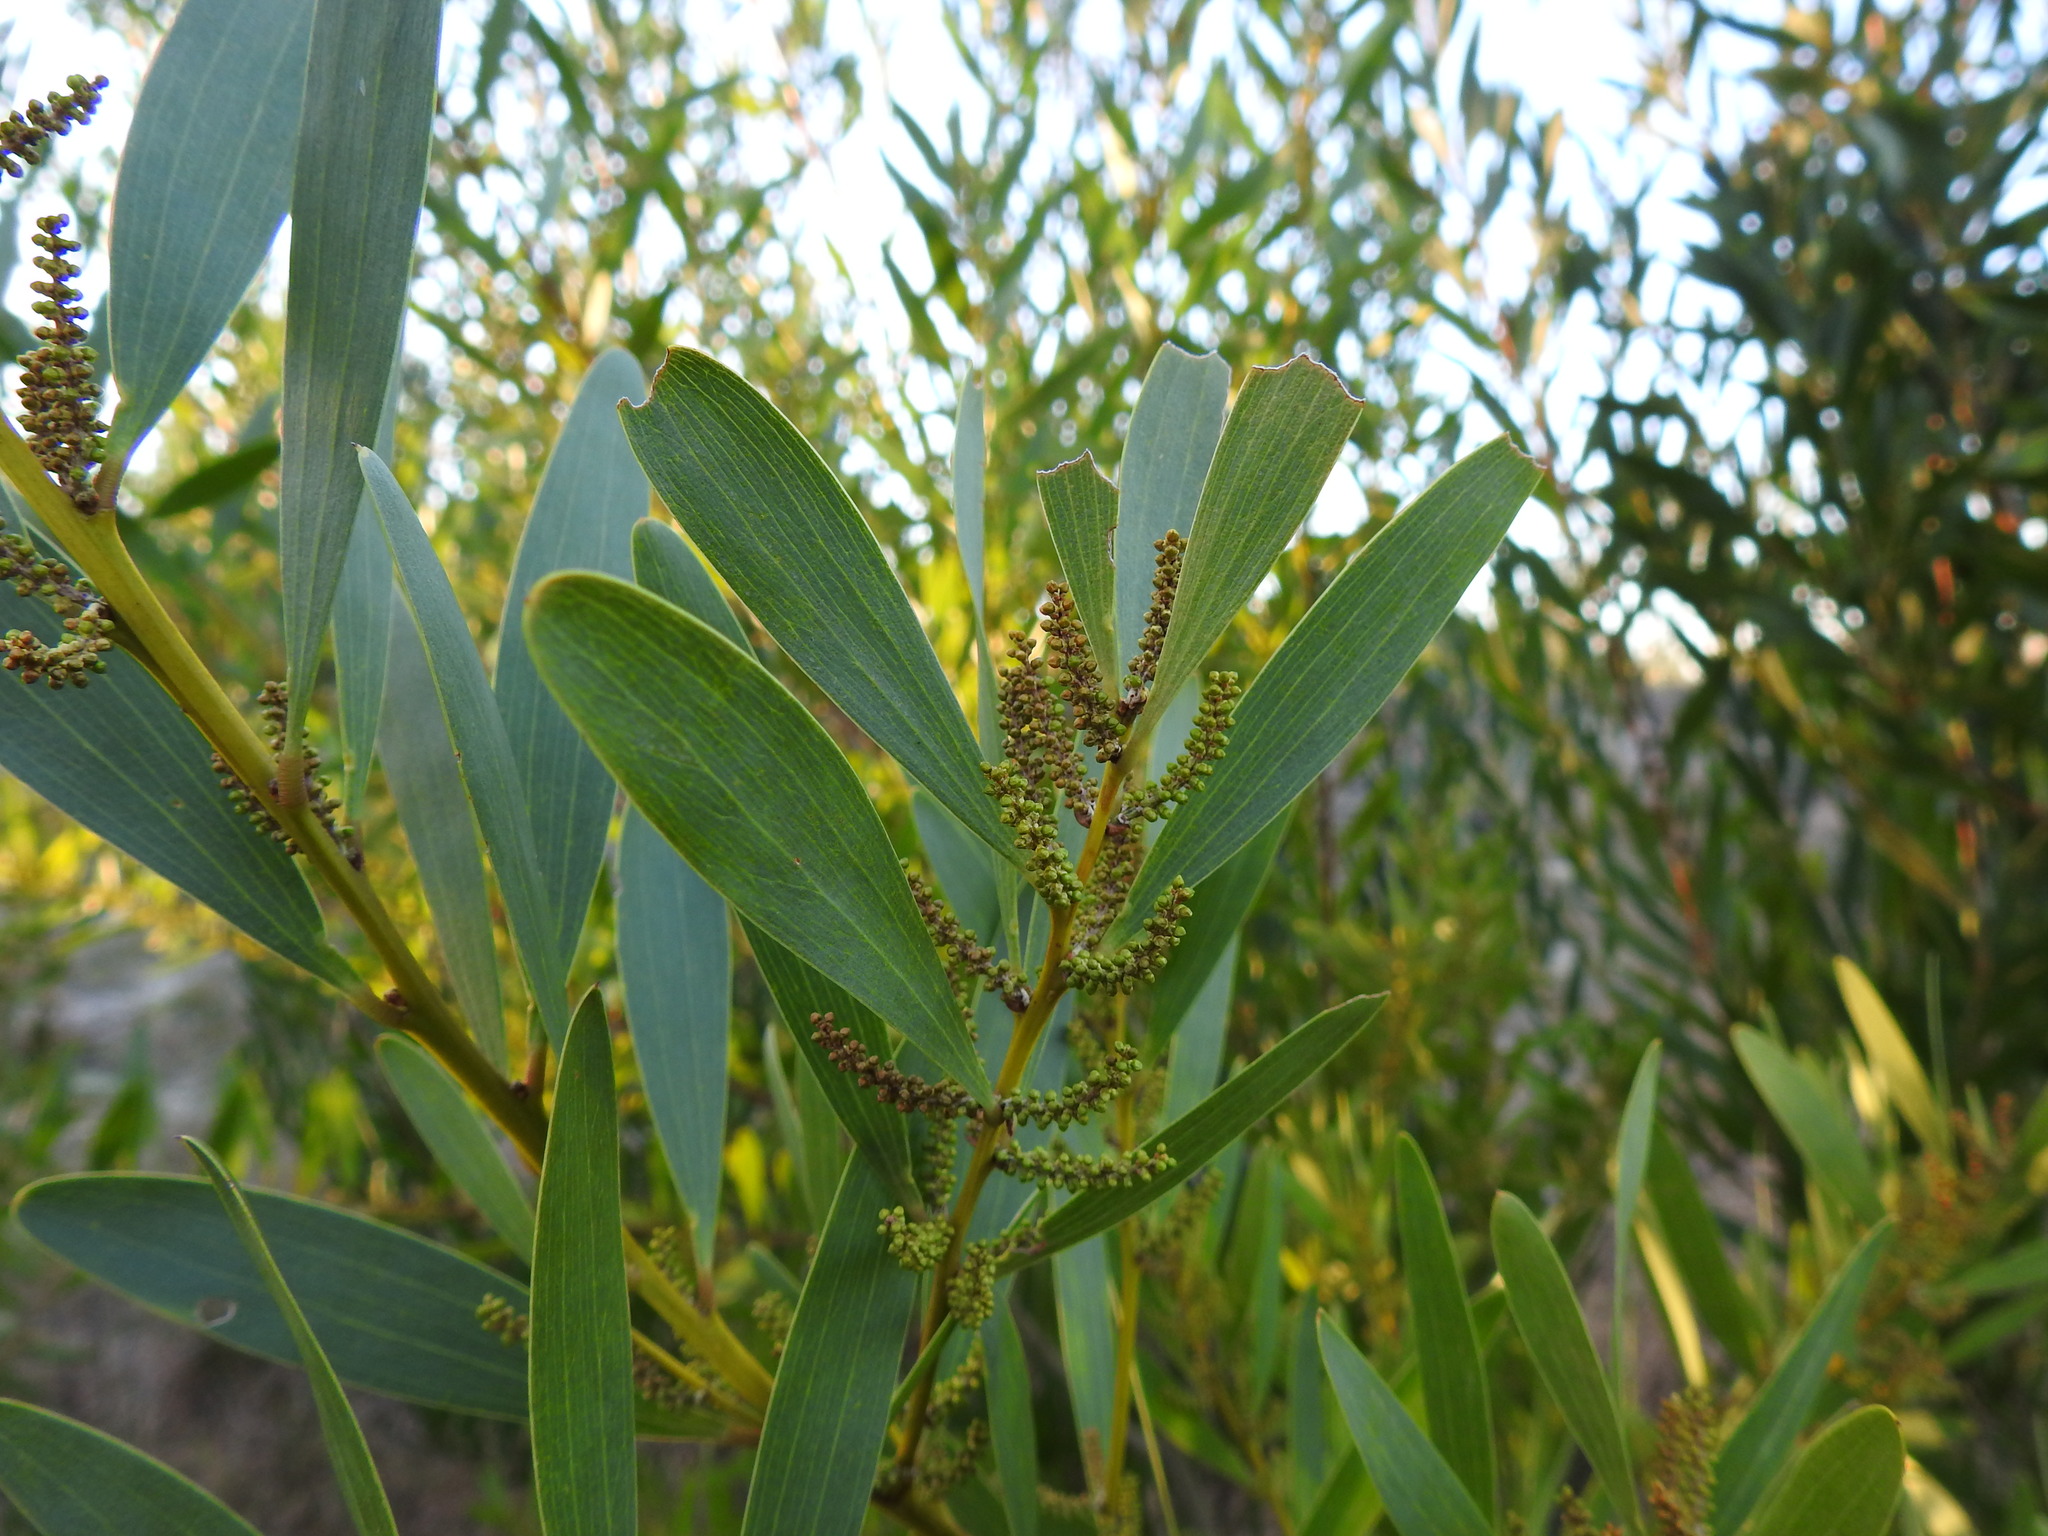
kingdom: Plantae
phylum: Tracheophyta
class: Magnoliopsida
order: Fabales
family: Fabaceae
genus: Acacia
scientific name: Acacia longifolia
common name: Sydney golden wattle
